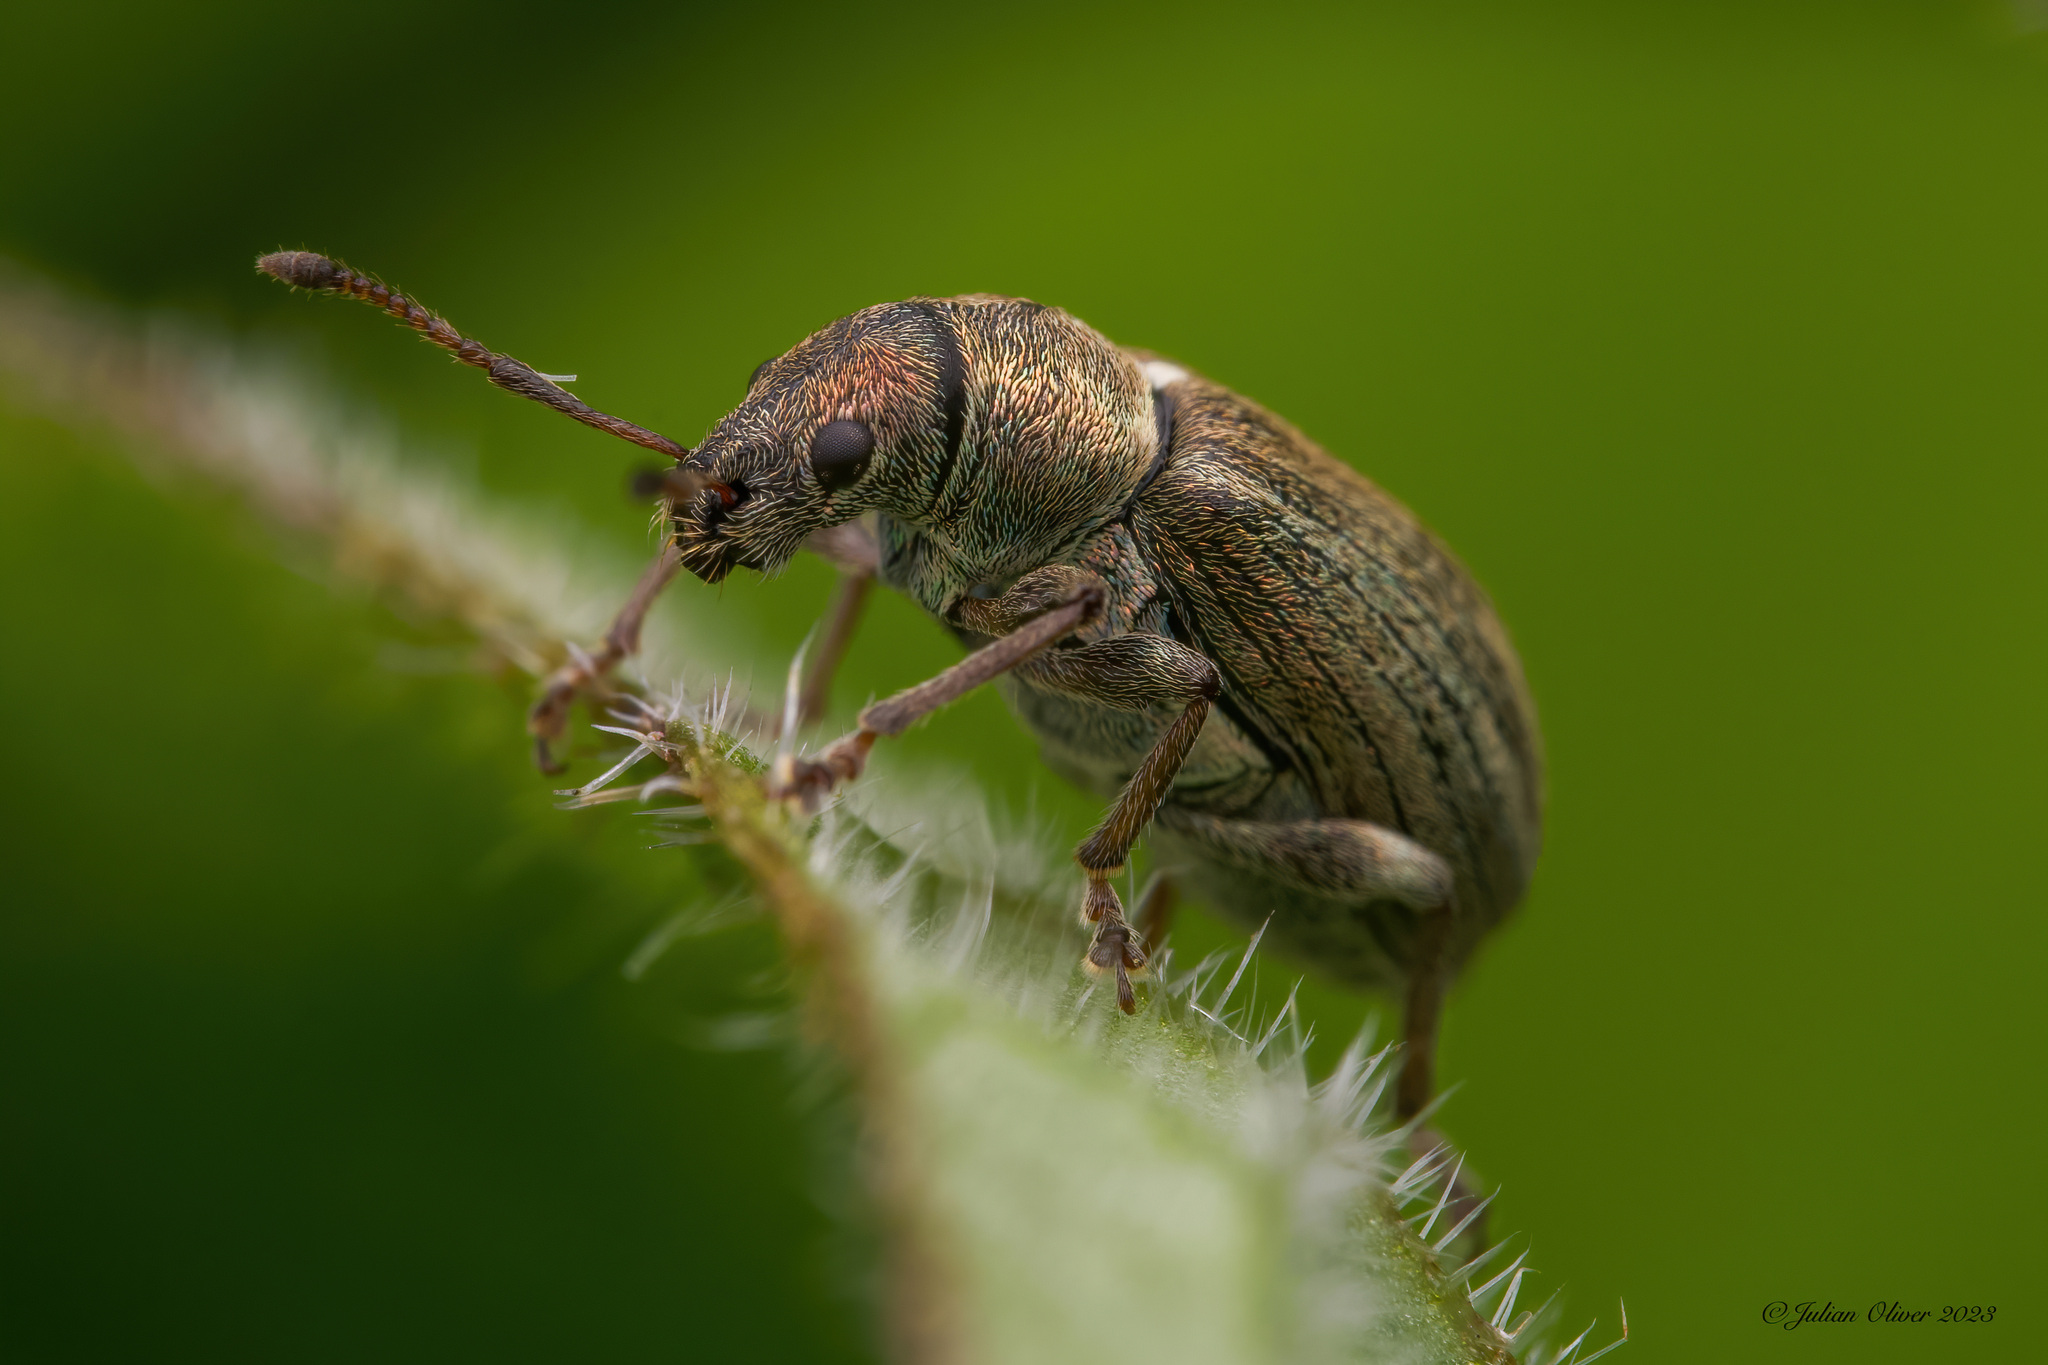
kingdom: Animalia
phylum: Arthropoda
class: Insecta
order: Coleoptera
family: Curculionidae
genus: Phyllobius
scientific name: Phyllobius pyri
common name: Common leaf weevil
